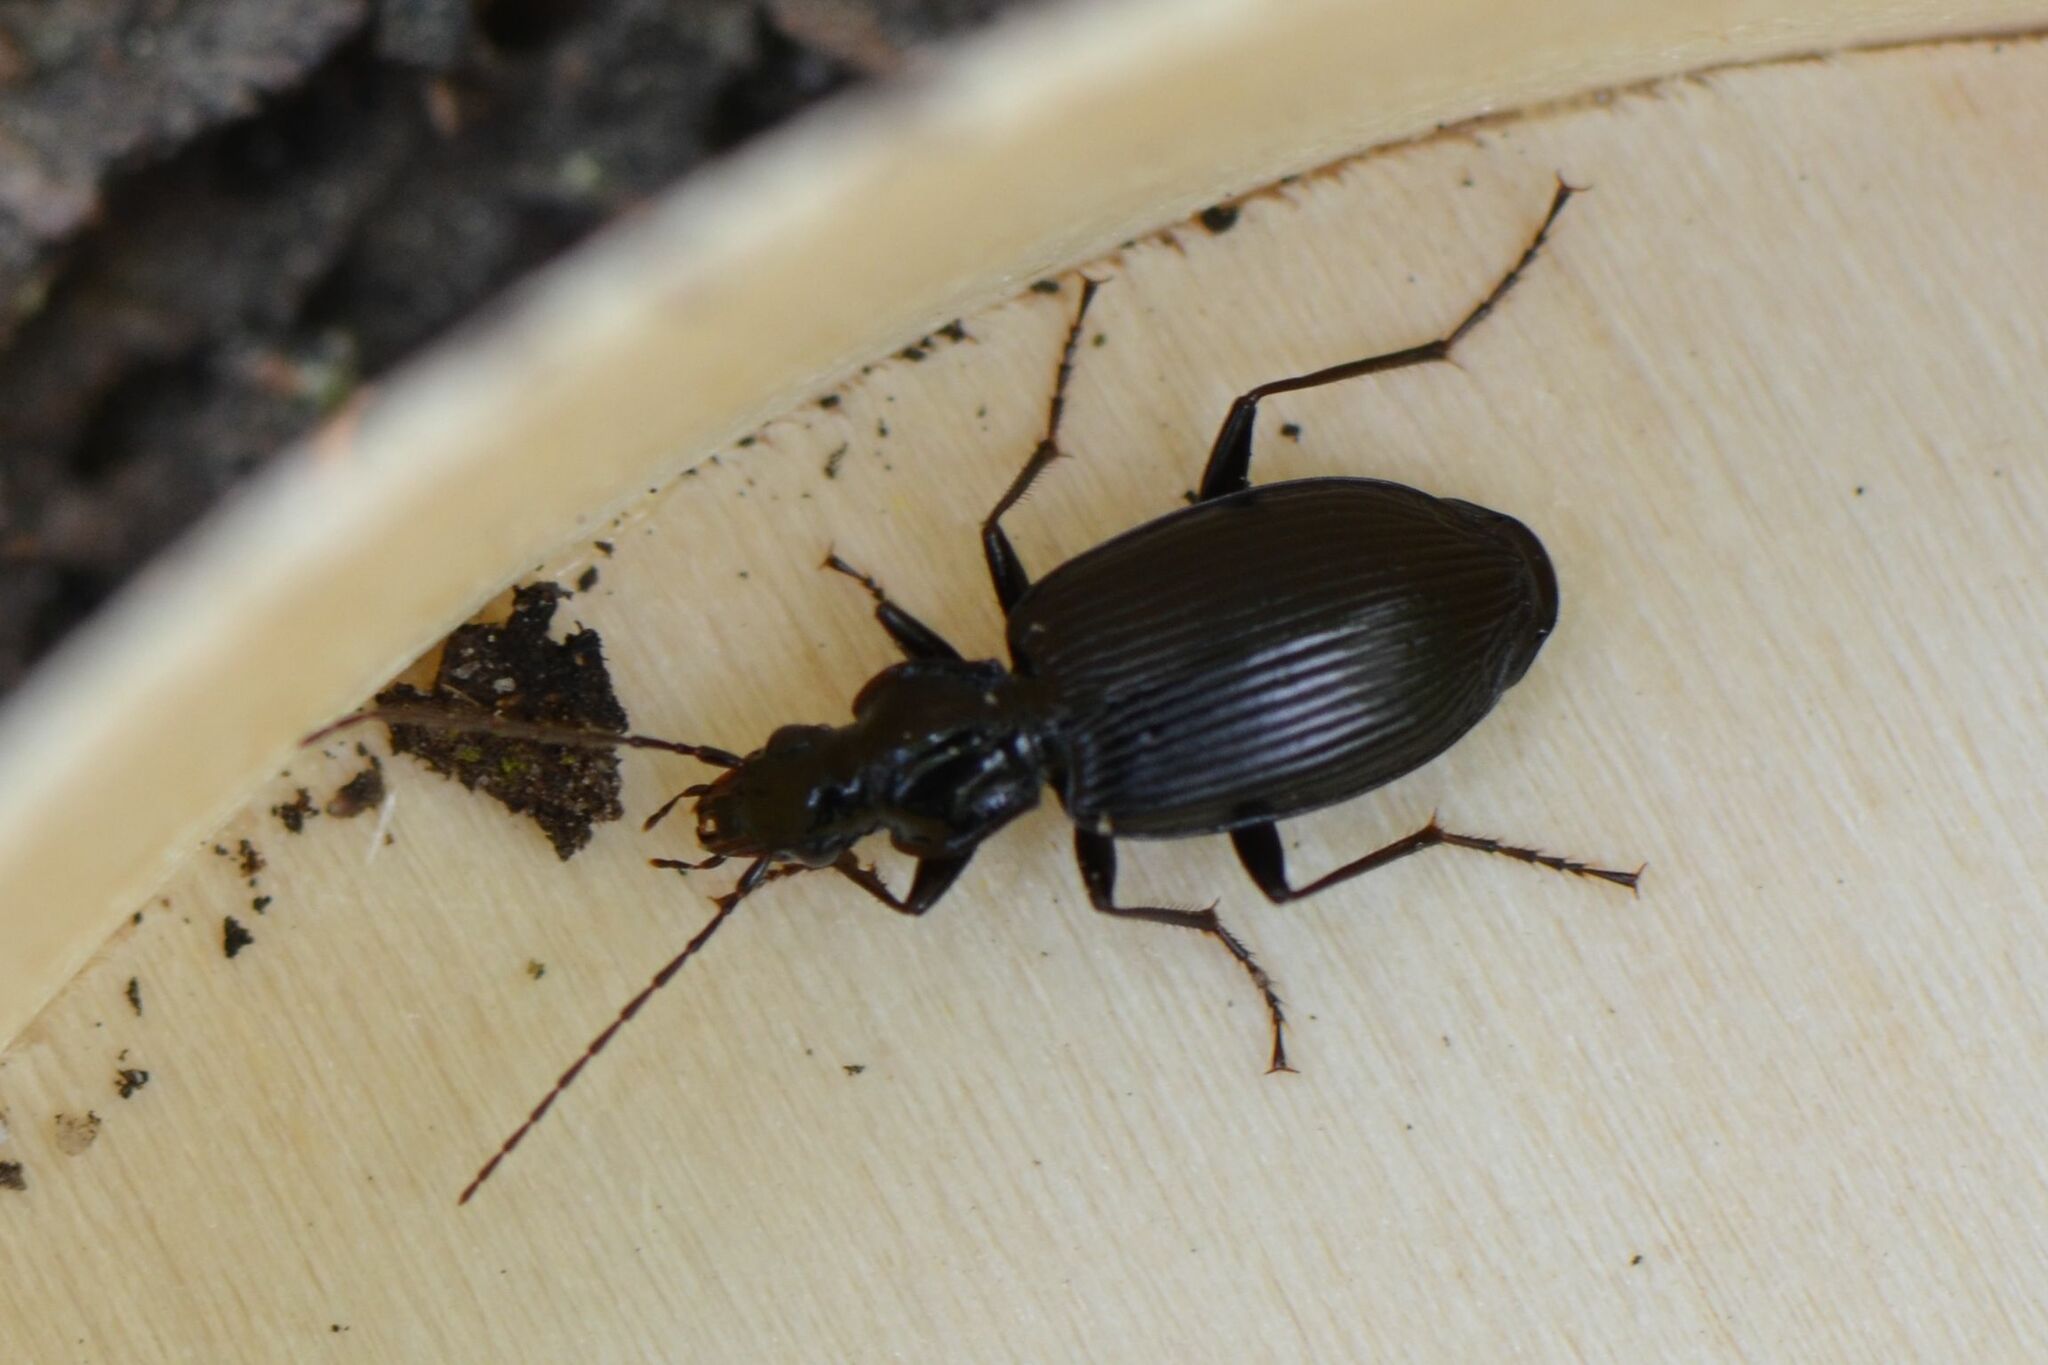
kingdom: Animalia
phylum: Arthropoda
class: Insecta
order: Coleoptera
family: Carabidae
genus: Platynus
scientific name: Platynus assimilis
